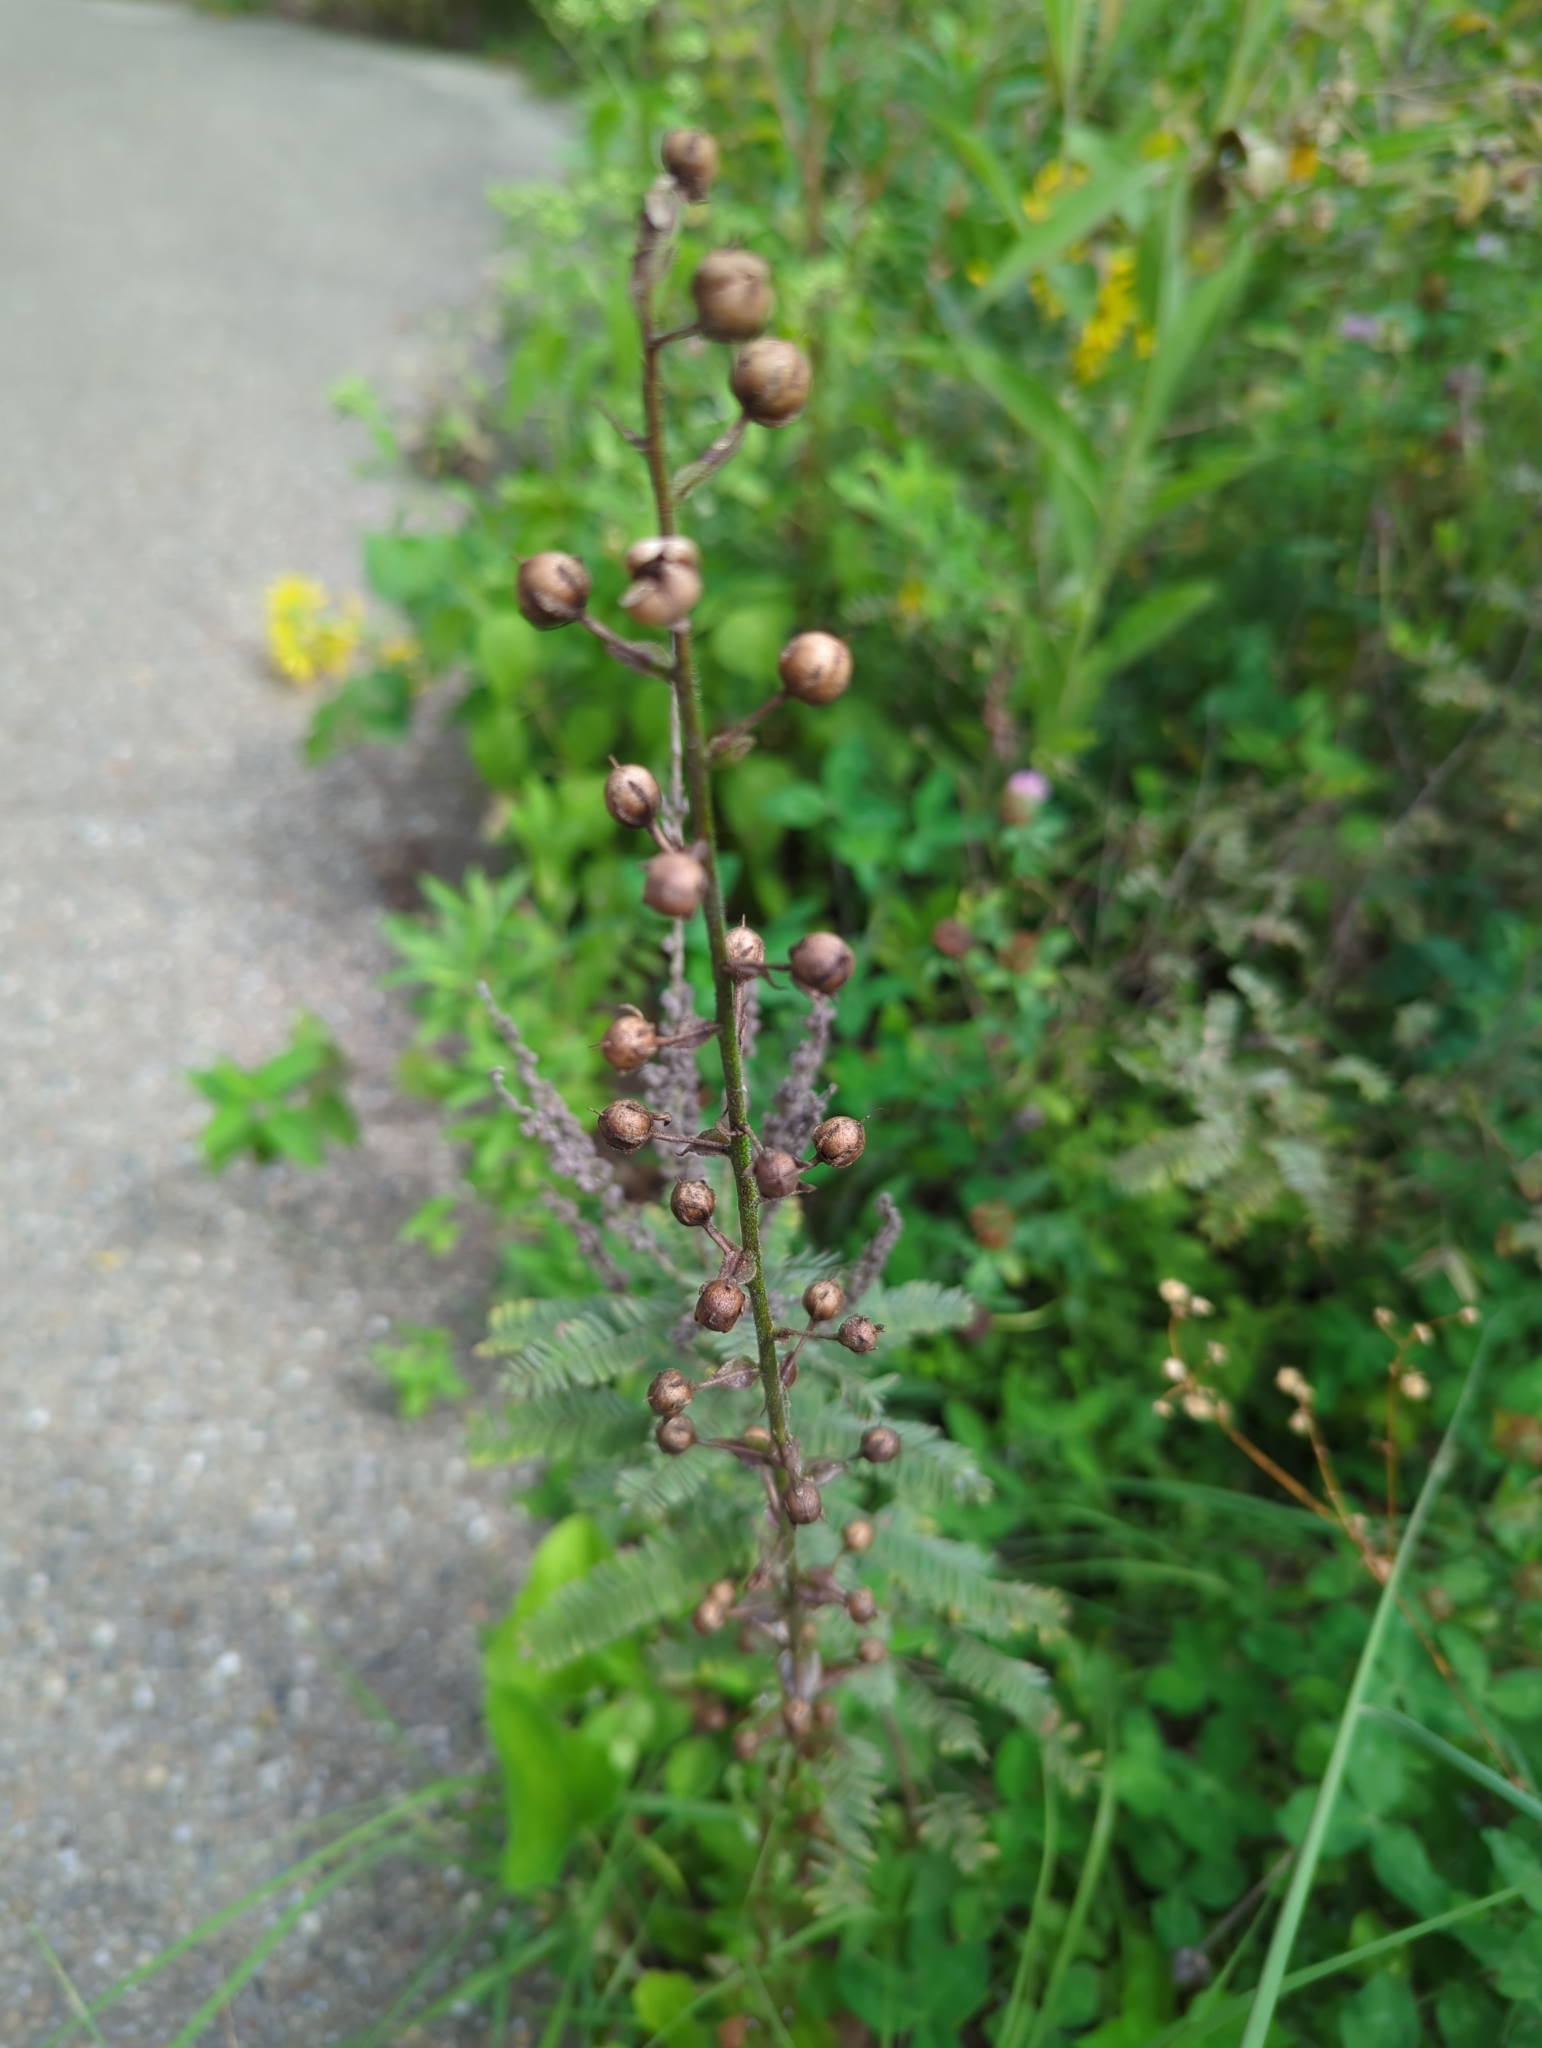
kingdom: Plantae
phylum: Tracheophyta
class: Magnoliopsida
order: Lamiales
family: Scrophulariaceae
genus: Verbascum
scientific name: Verbascum blattaria
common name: Moth mullein
